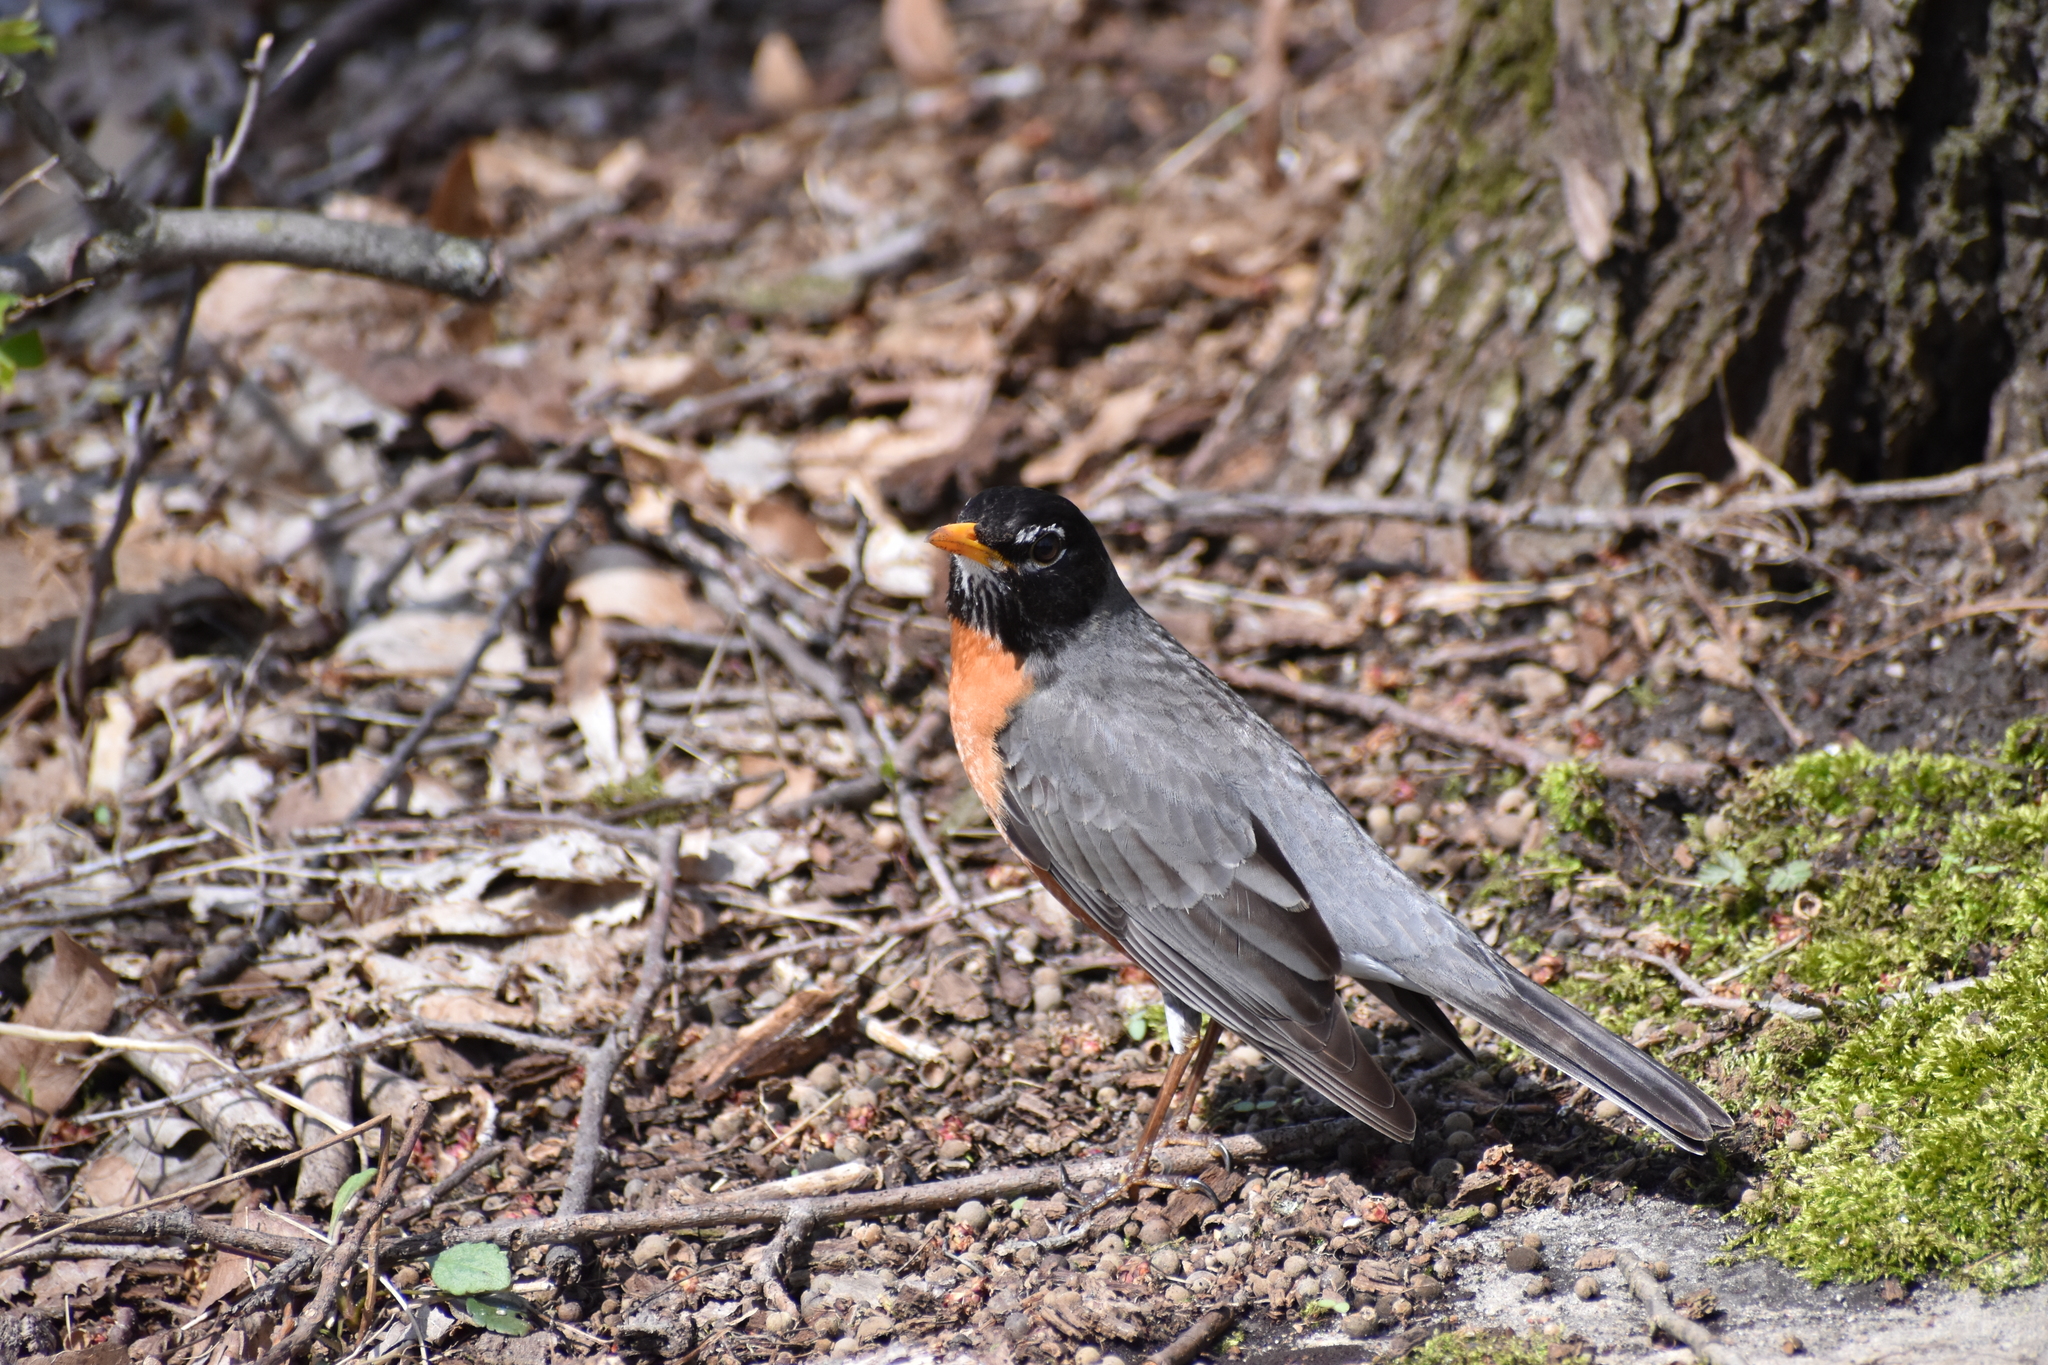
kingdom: Animalia
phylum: Chordata
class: Aves
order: Passeriformes
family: Turdidae
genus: Turdus
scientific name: Turdus migratorius
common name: American robin
